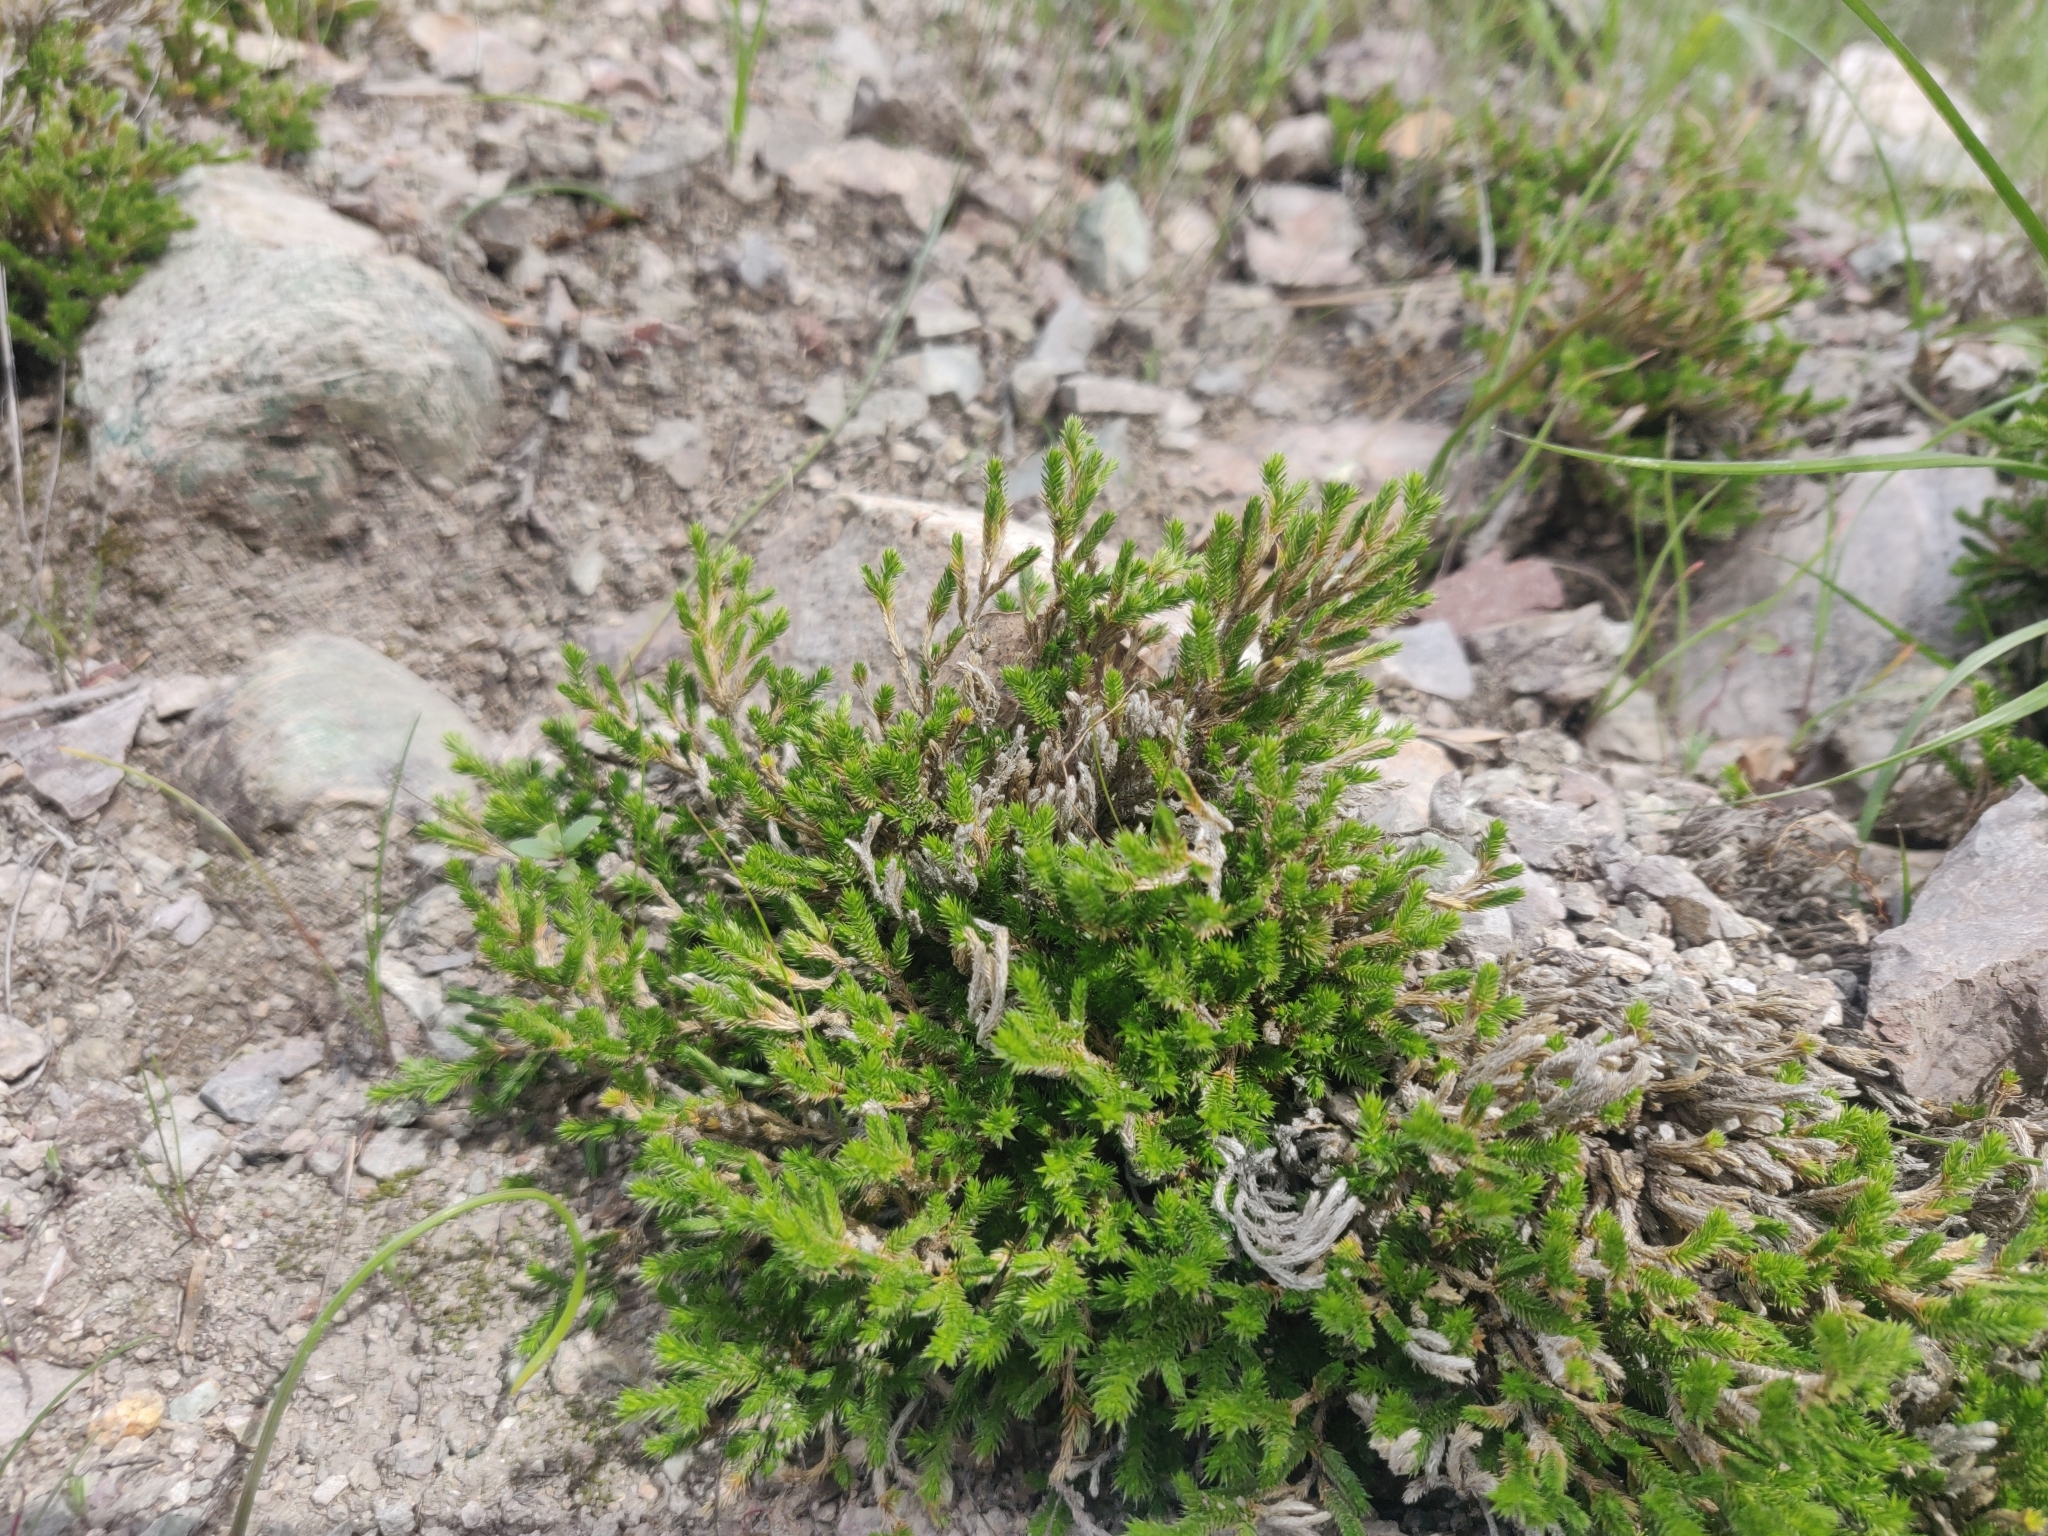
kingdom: Plantae
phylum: Tracheophyta
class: Lycopodiopsida
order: Selaginellales
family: Selaginellaceae
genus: Selaginella
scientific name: Selaginella bigelovii
